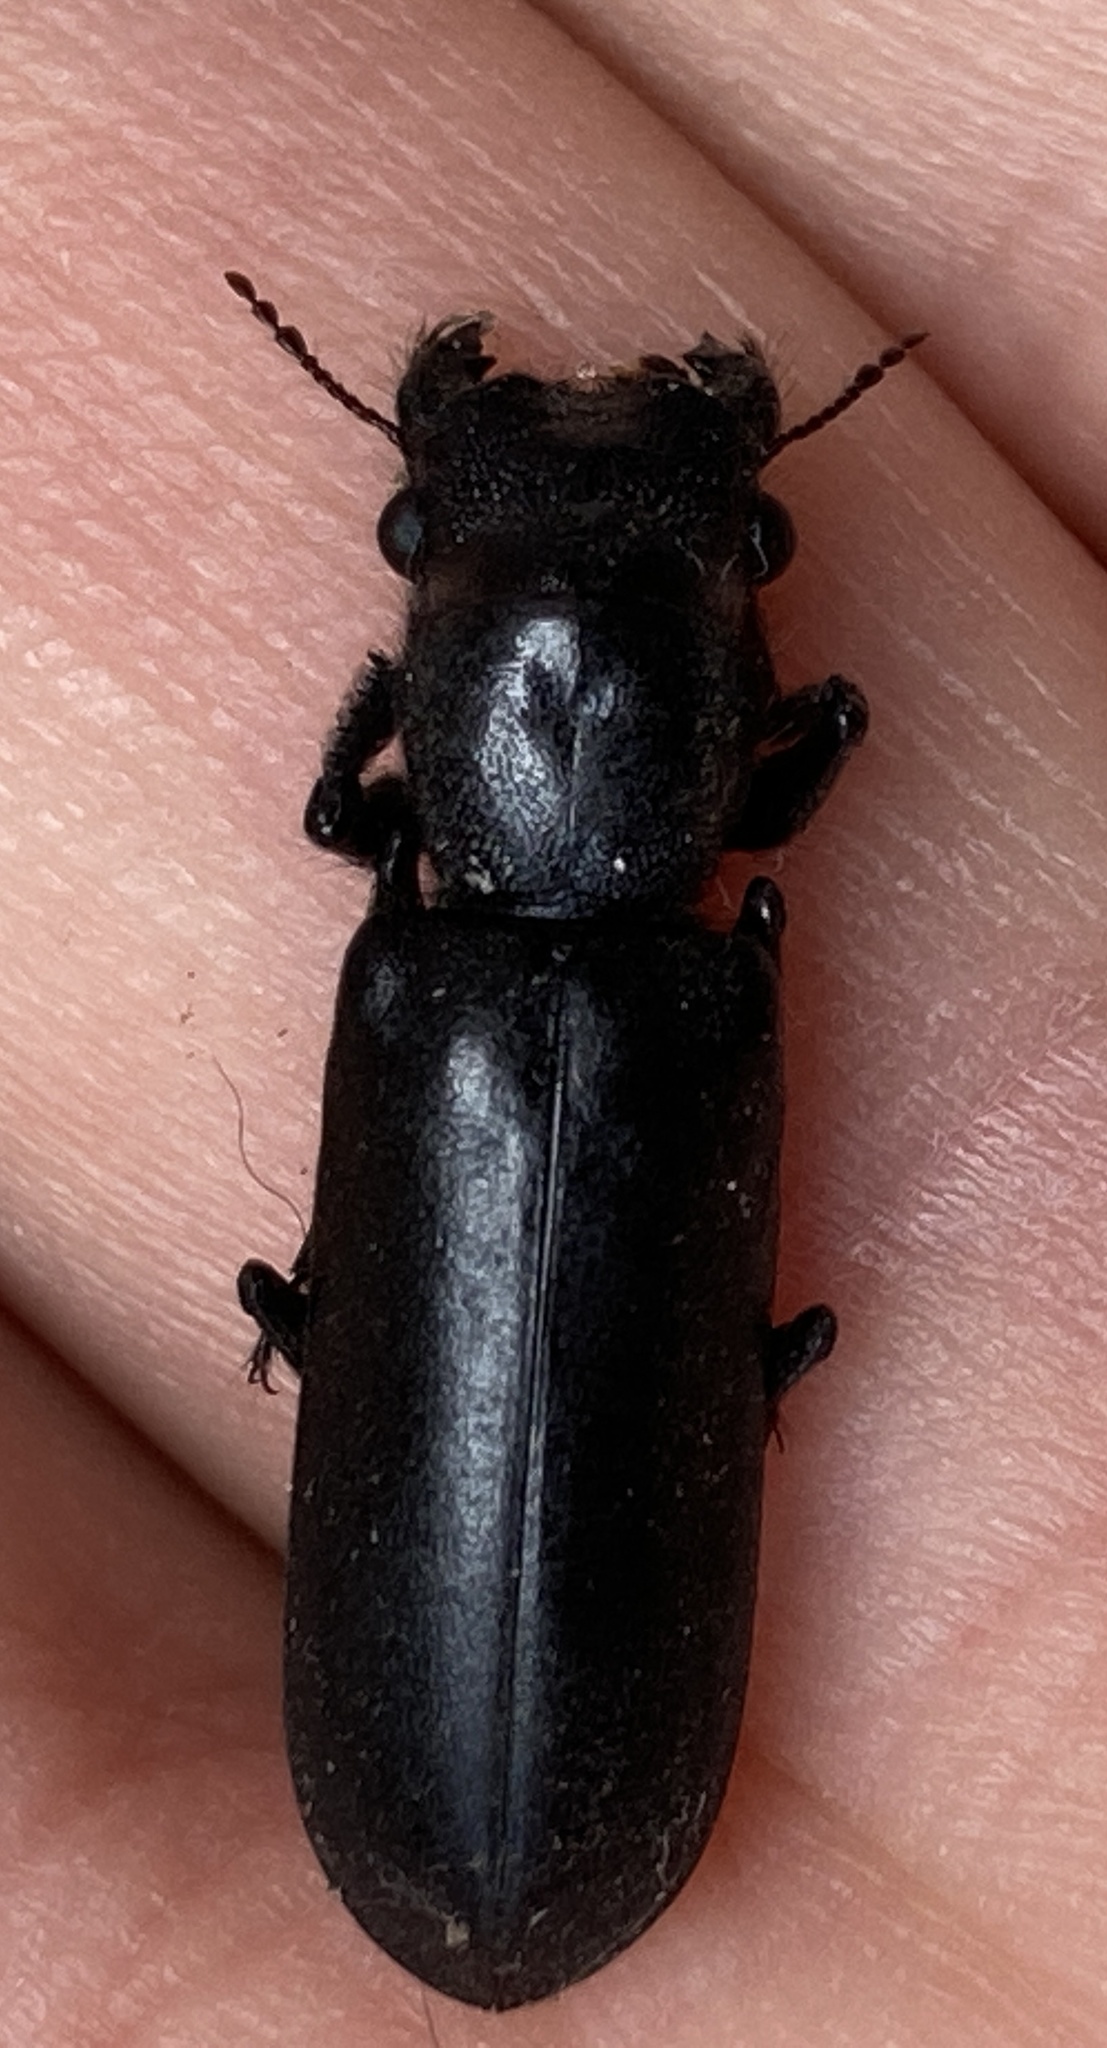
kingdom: Animalia
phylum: Arthropoda
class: Insecta
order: Coleoptera
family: Bostrichidae
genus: Polycaon
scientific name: Polycaon stoutii
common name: Powderpost beetle
